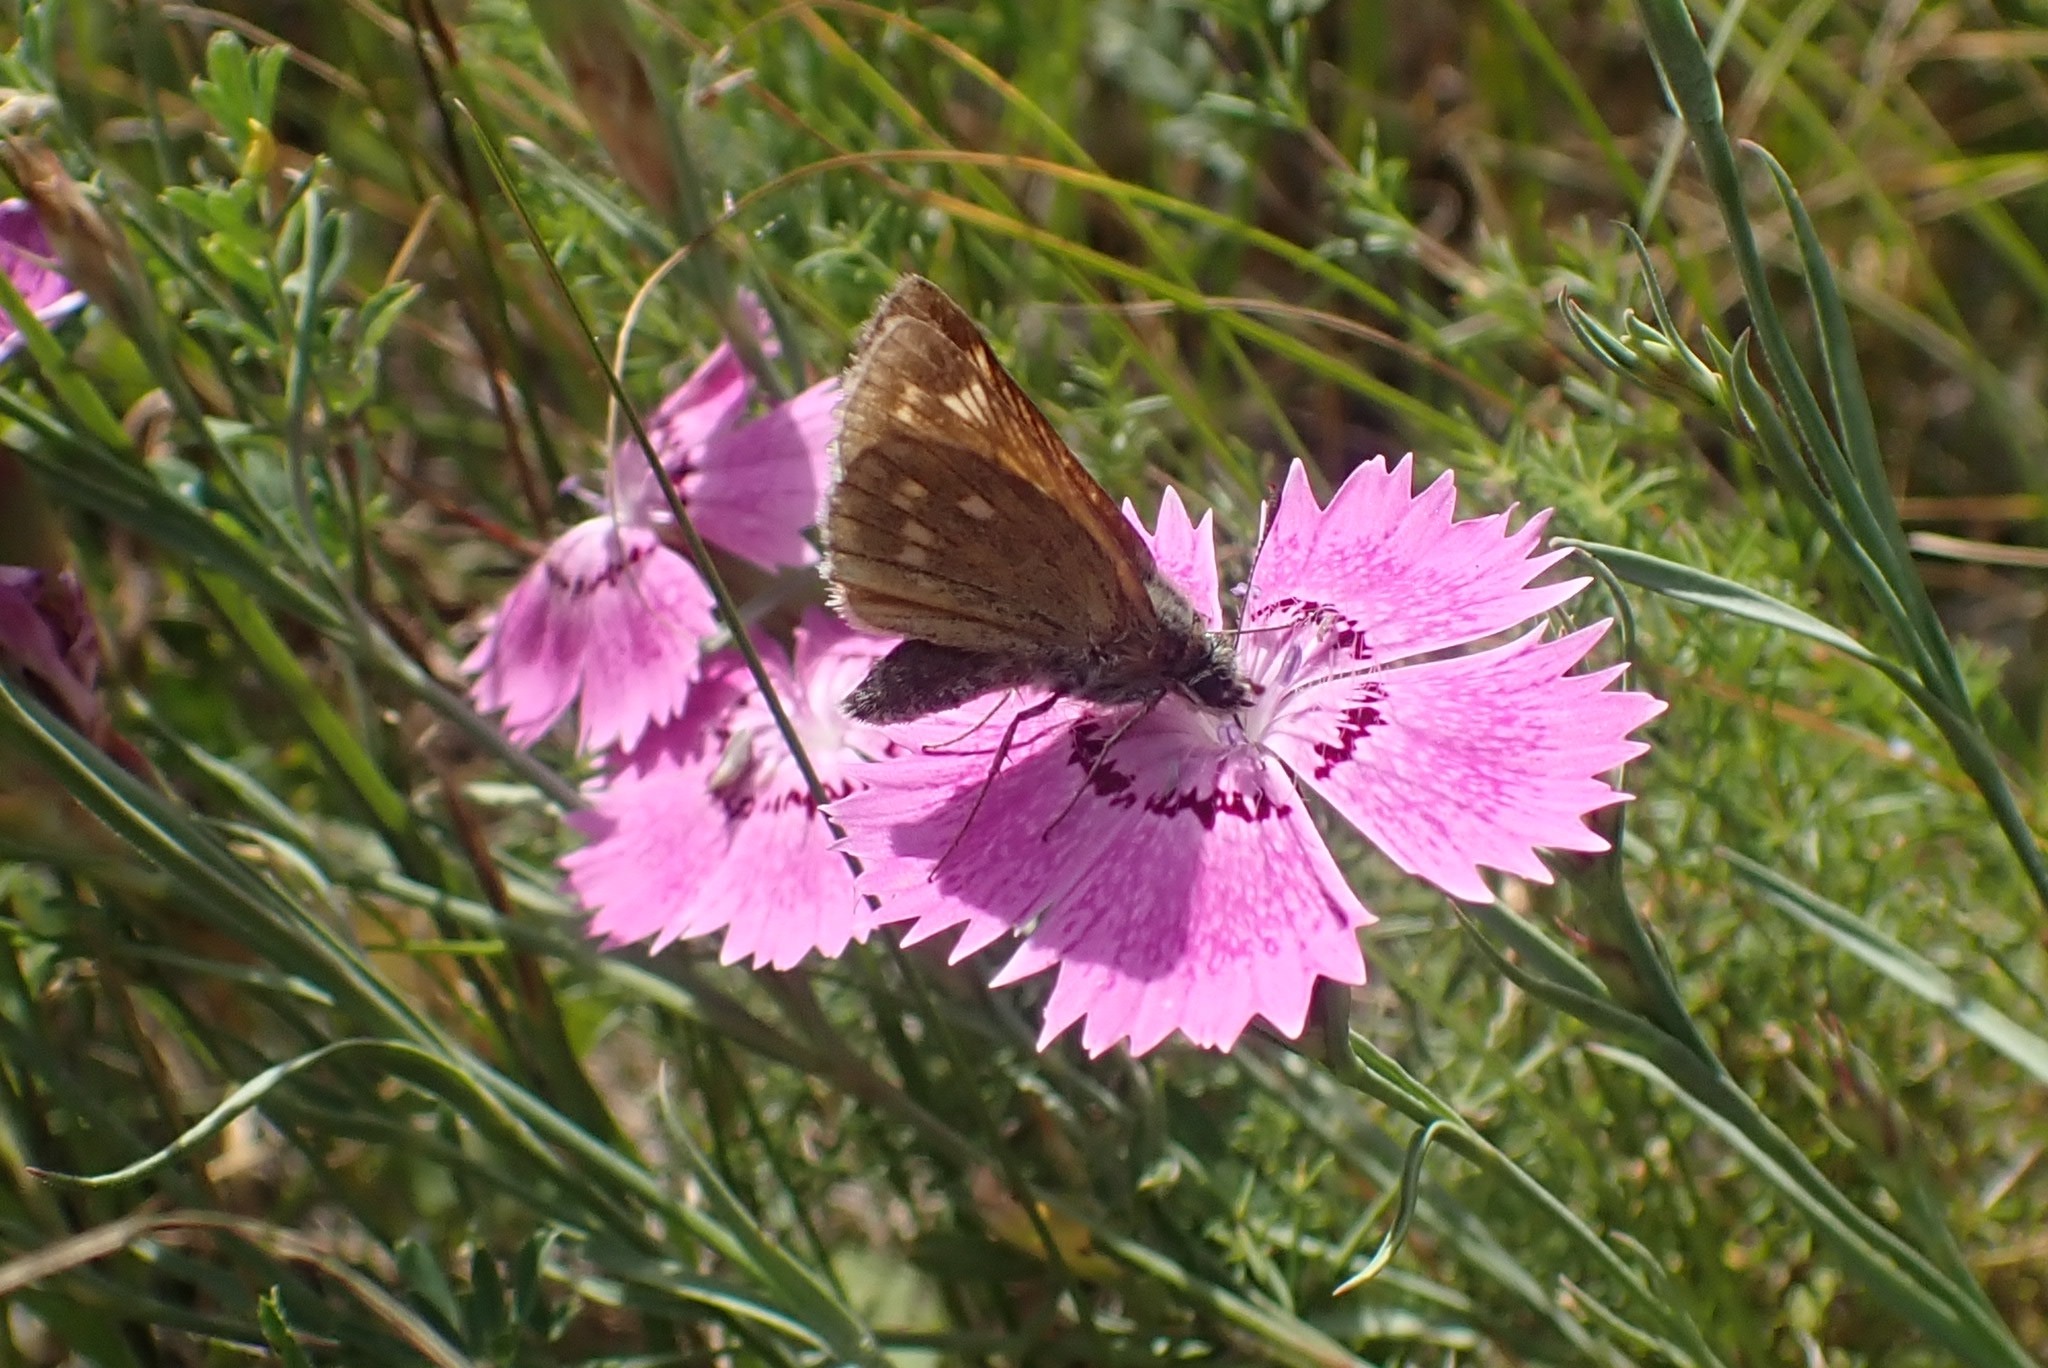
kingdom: Animalia
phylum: Arthropoda
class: Insecta
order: Lepidoptera
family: Hesperiidae
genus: Ochlodes
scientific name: Ochlodes venata
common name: Large skipper
